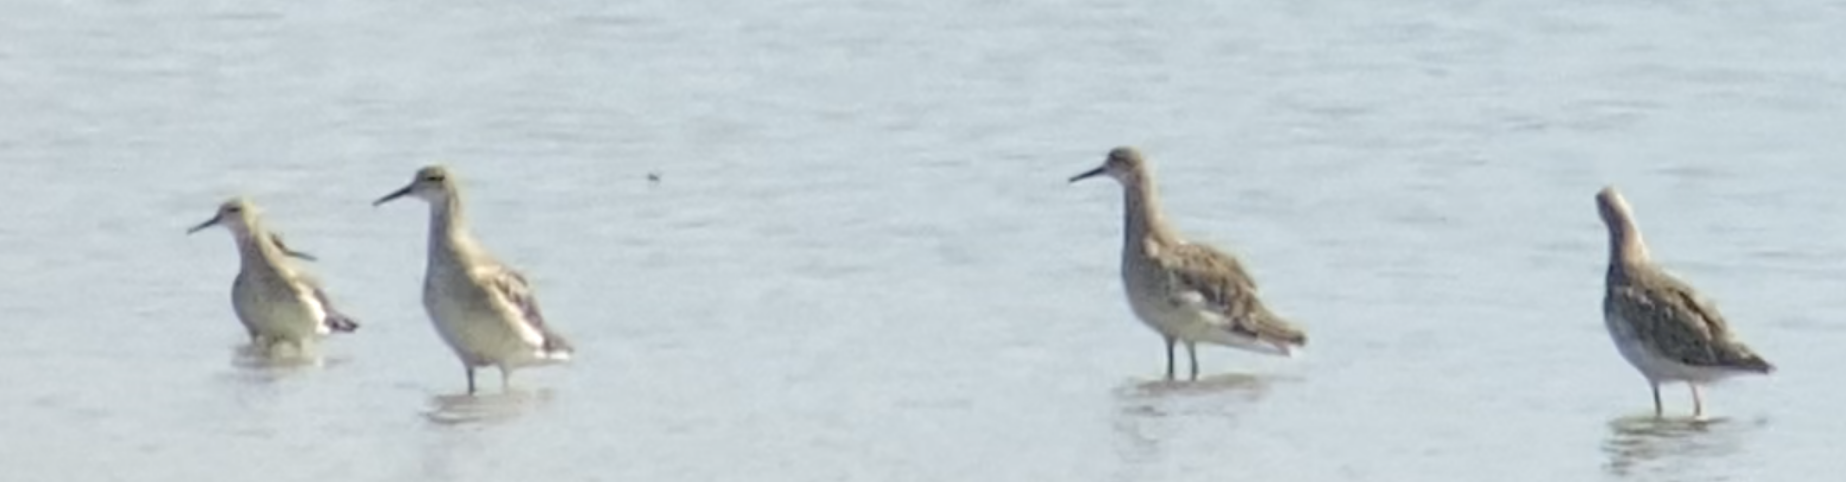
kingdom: Animalia
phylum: Chordata
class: Aves
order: Charadriiformes
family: Scolopacidae
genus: Calidris
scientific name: Calidris pugnax
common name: Ruff
